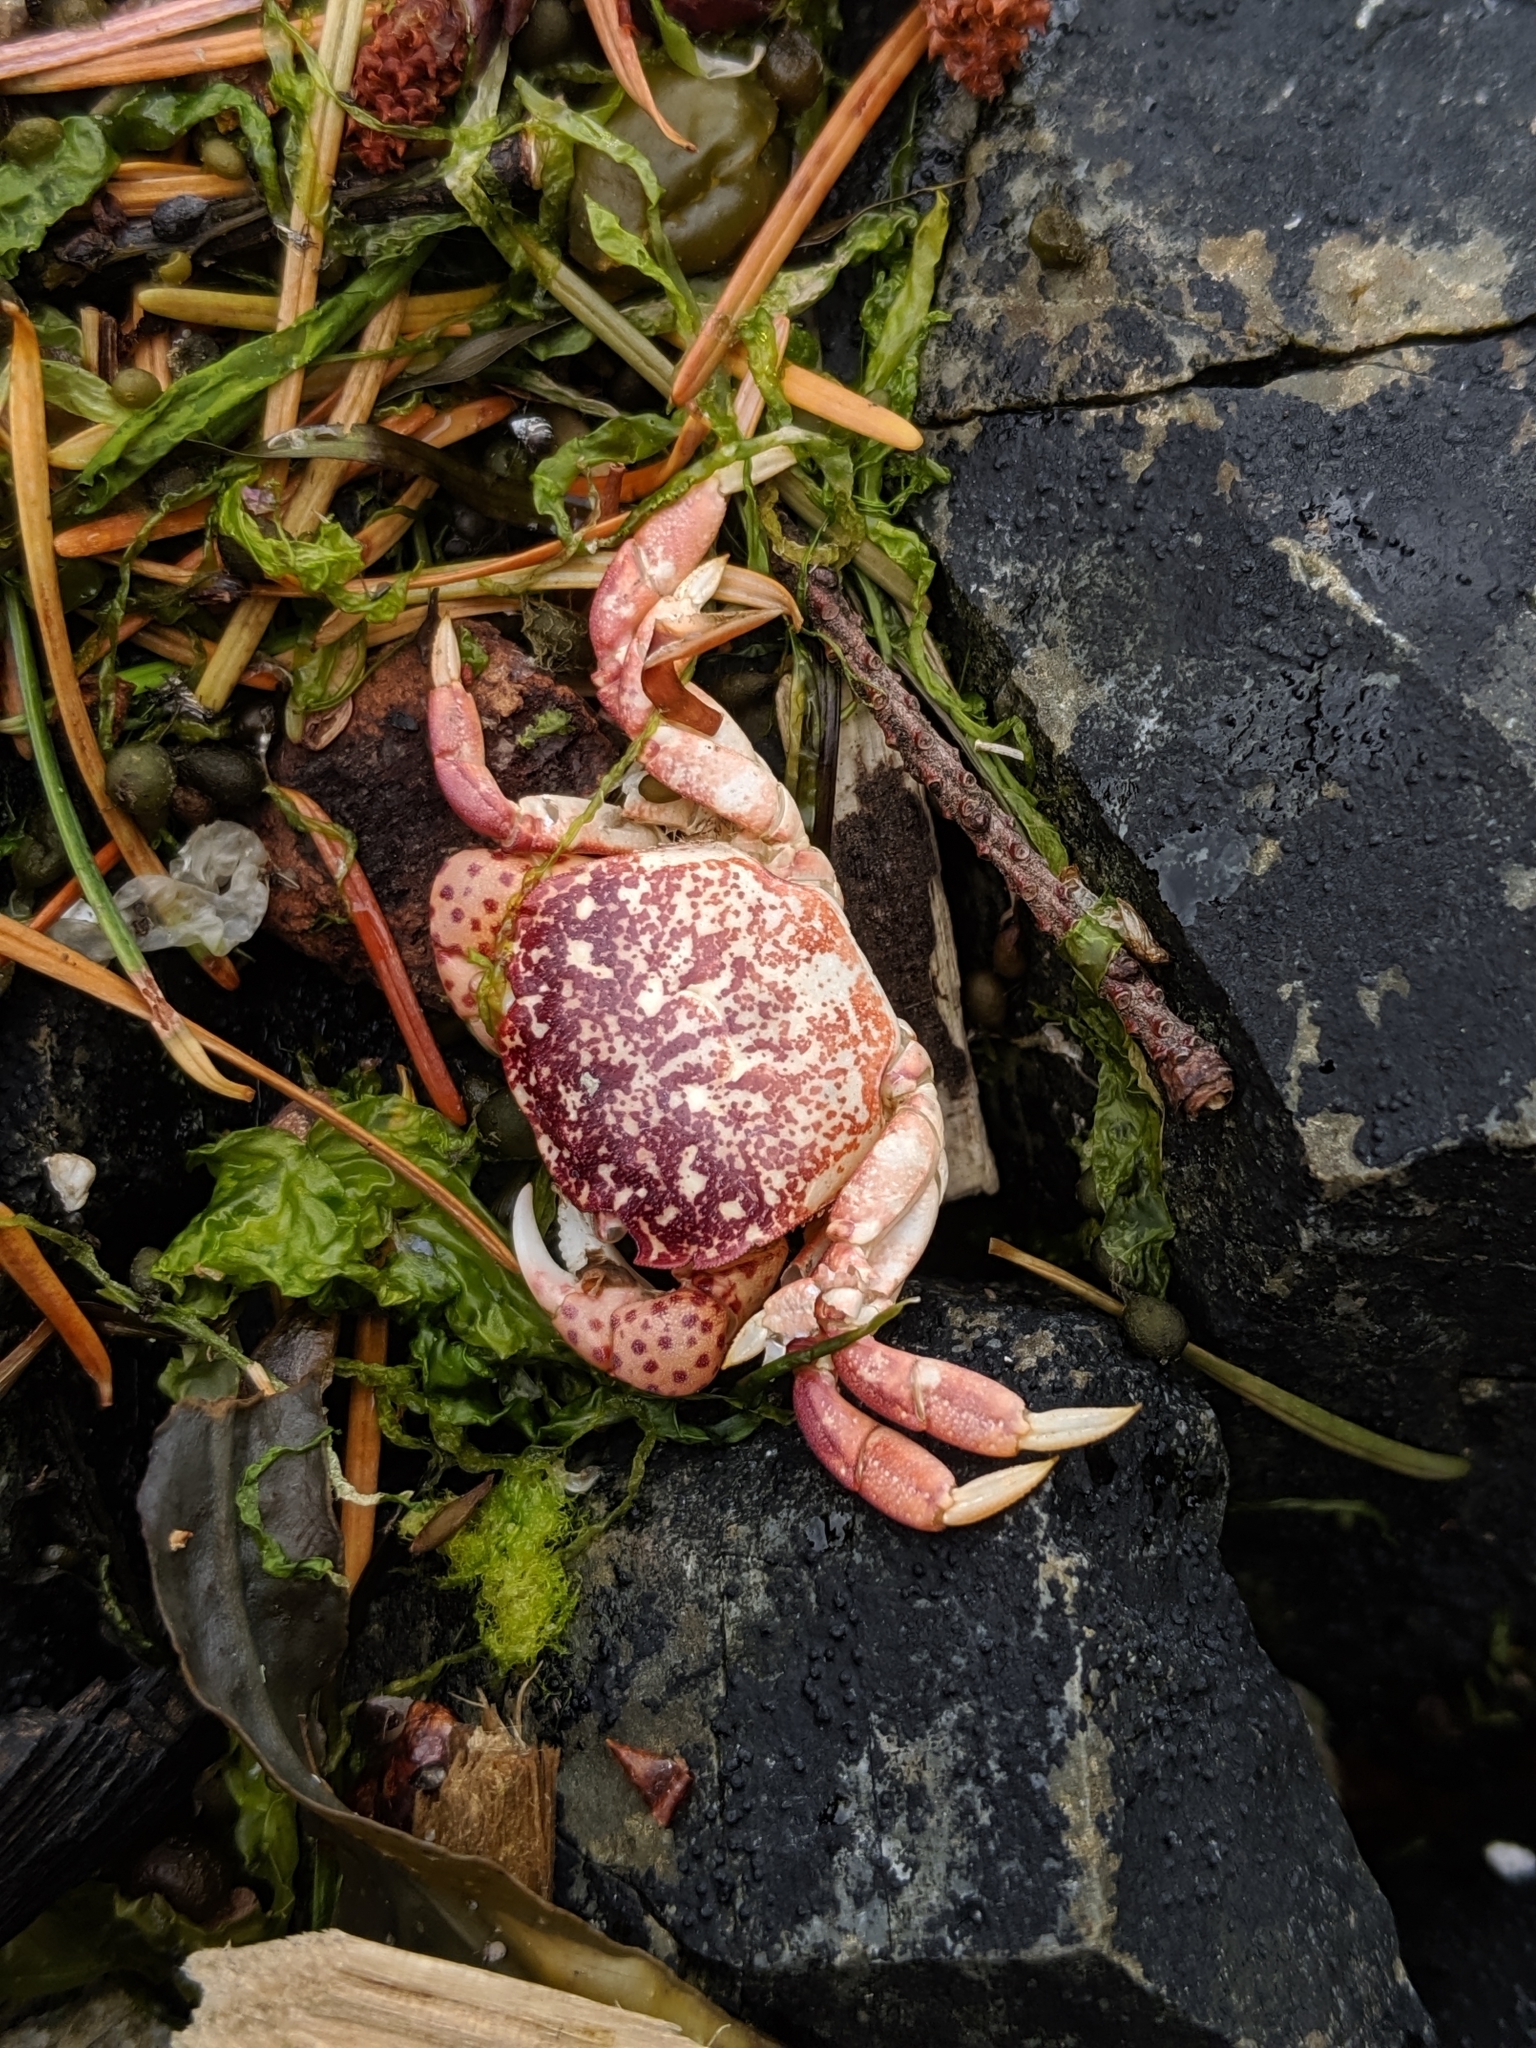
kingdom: Animalia
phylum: Arthropoda
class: Malacostraca
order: Decapoda
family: Varunidae
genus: Hemigrapsus
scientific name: Hemigrapsus nudus
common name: Purple shore crab
